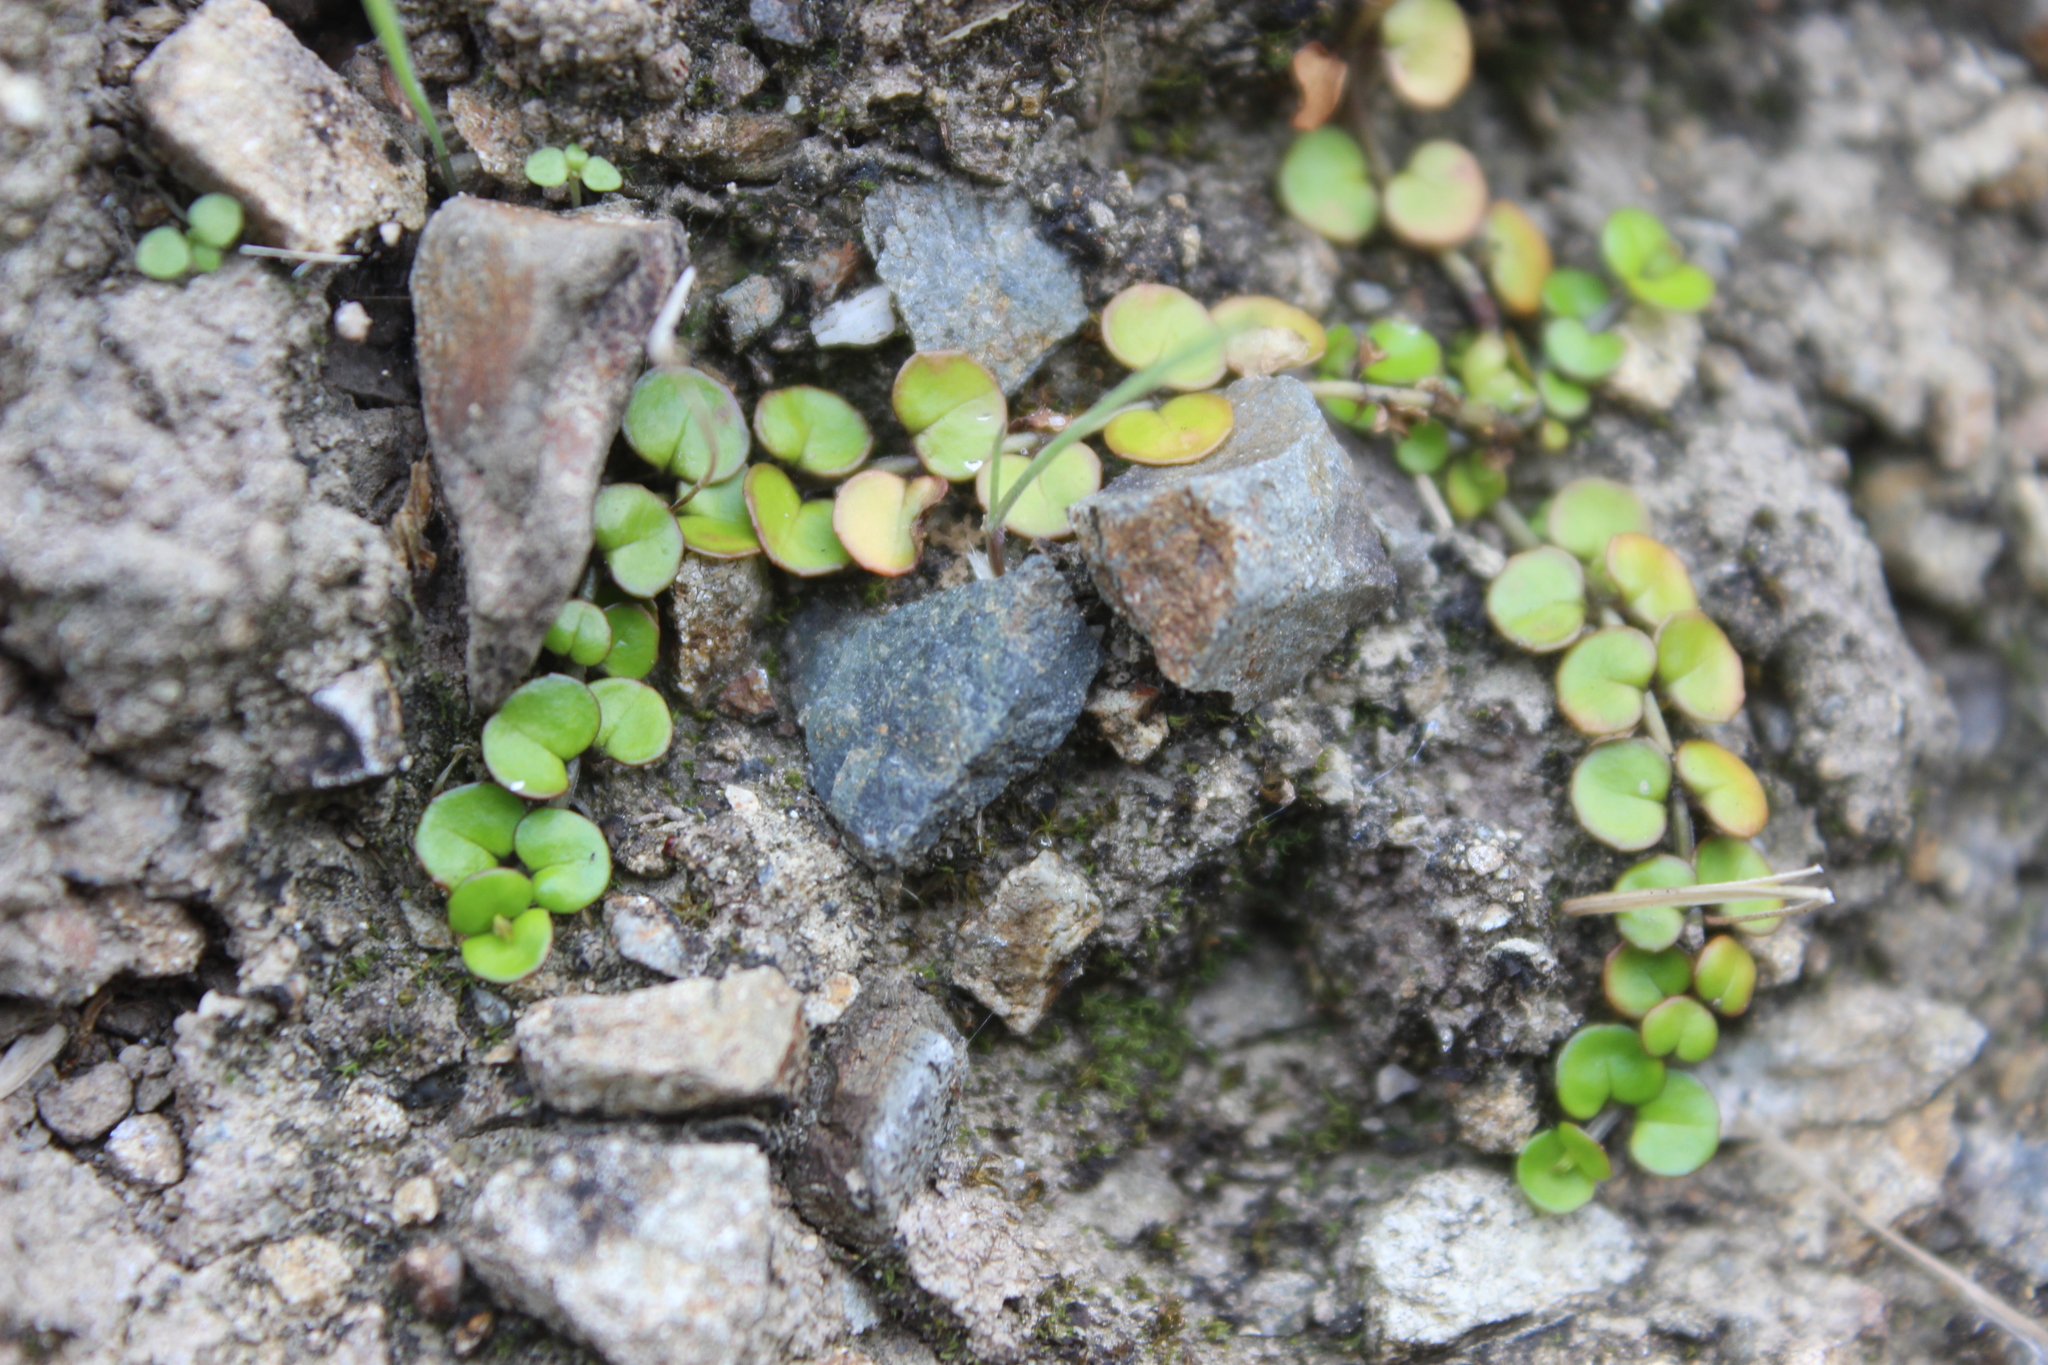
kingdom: Plantae
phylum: Tracheophyta
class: Magnoliopsida
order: Myrtales
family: Onagraceae
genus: Epilobium
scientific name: Epilobium nummularifolium
